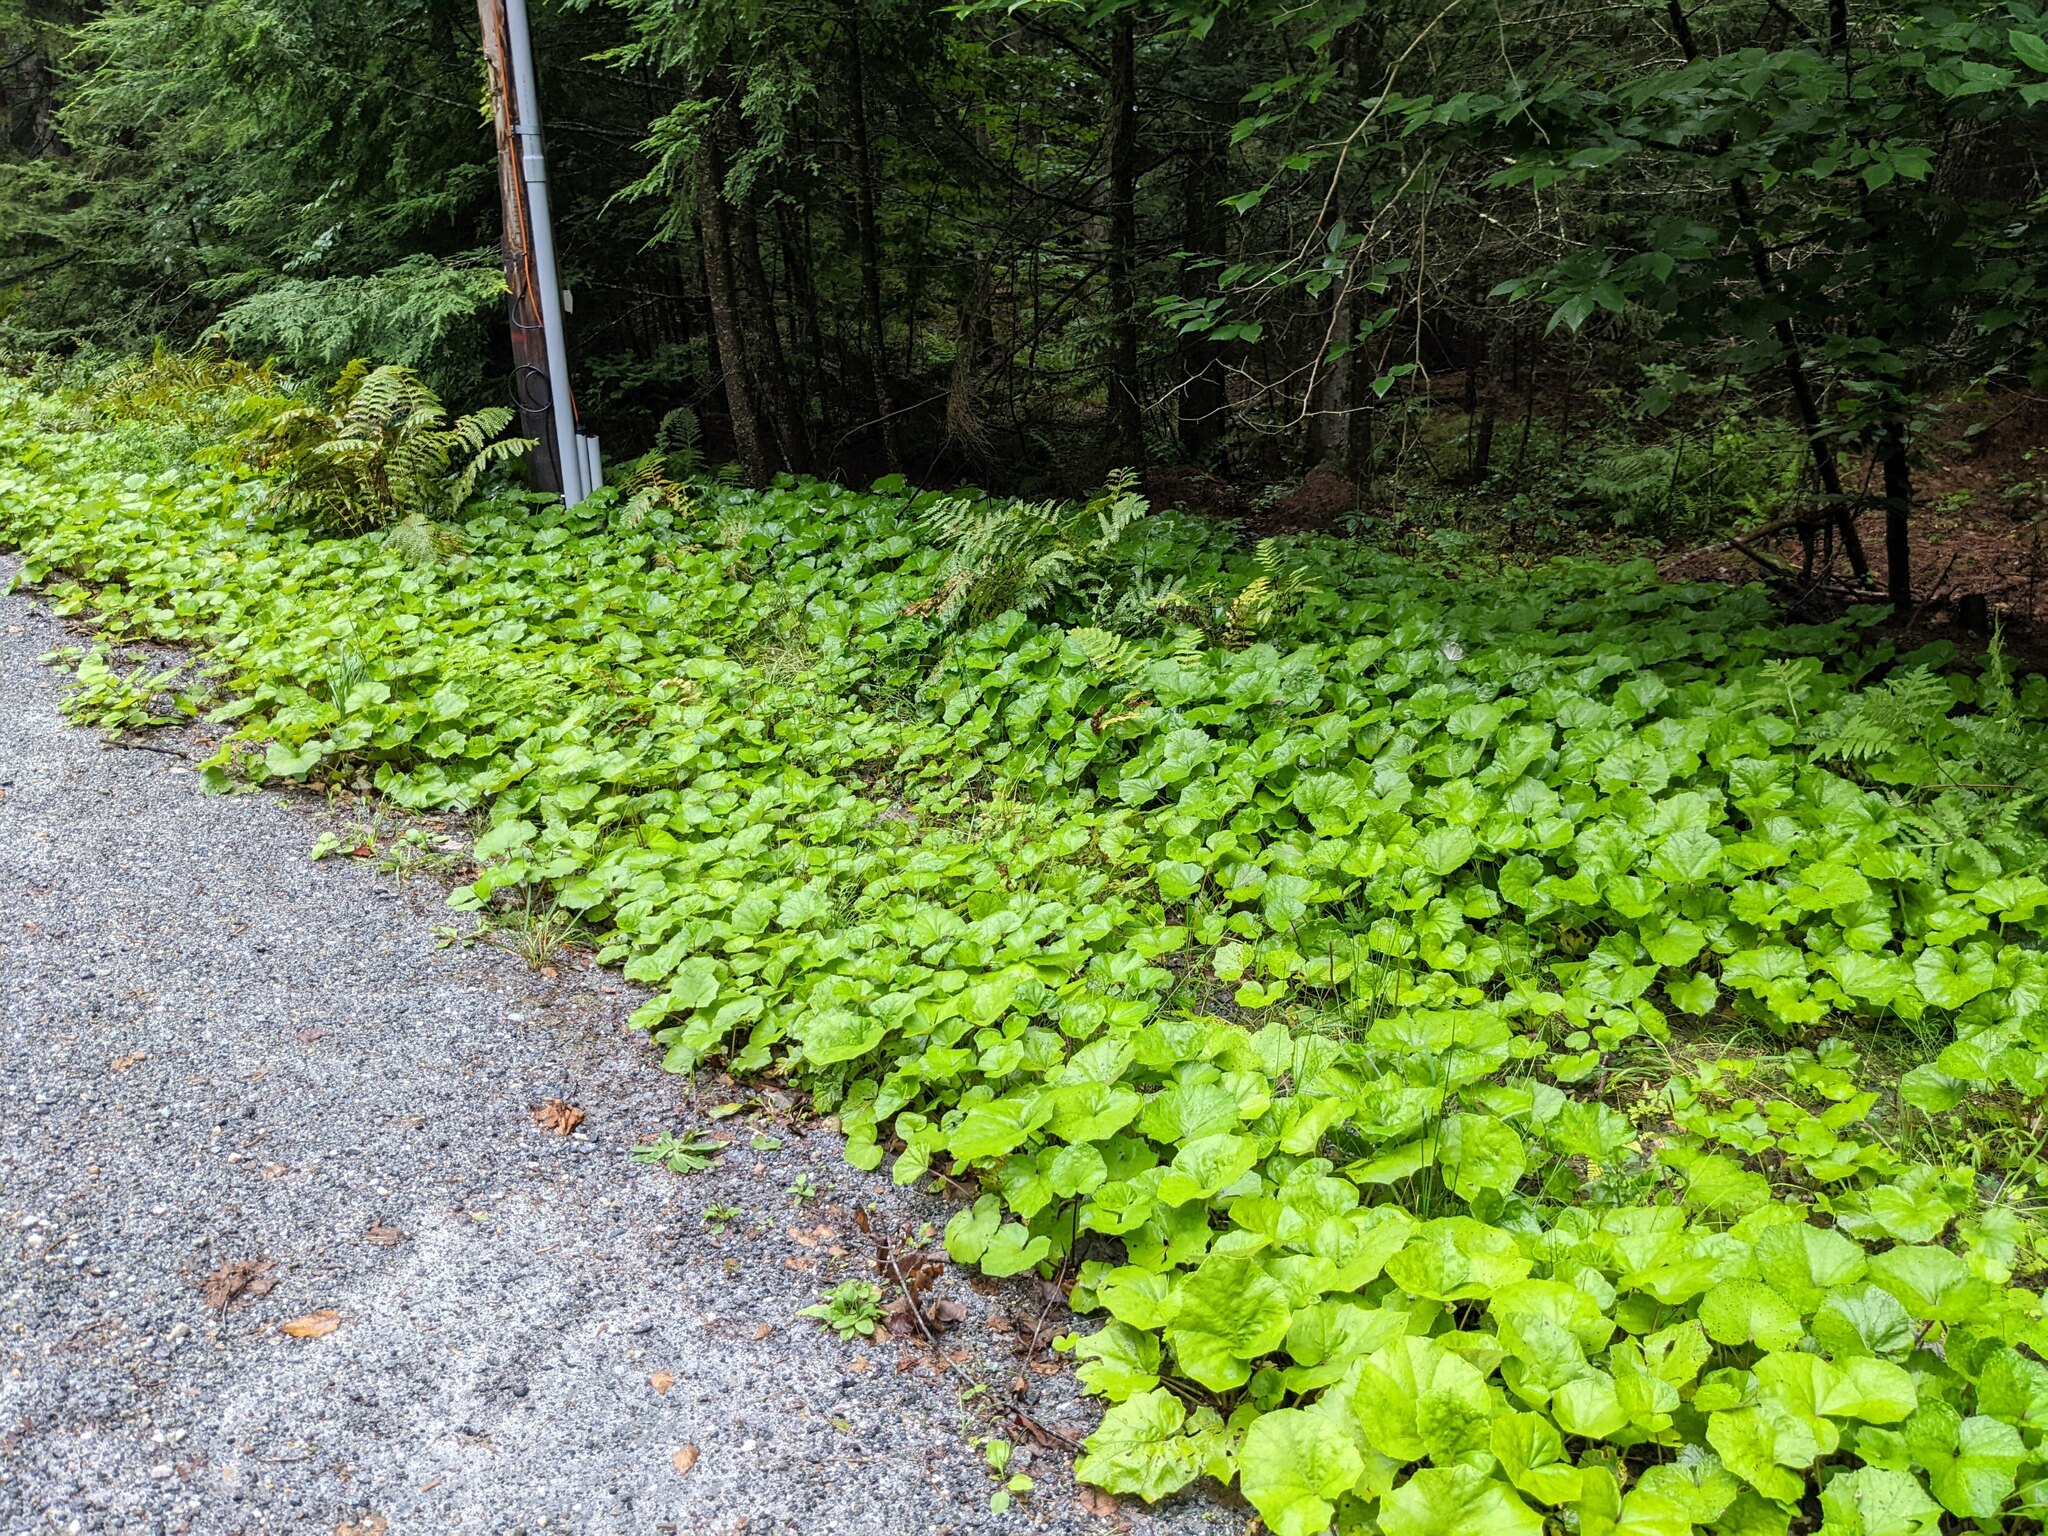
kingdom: Plantae
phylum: Tracheophyta
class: Magnoliopsida
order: Asterales
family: Asteraceae
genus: Tussilago
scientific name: Tussilago farfara
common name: Coltsfoot
